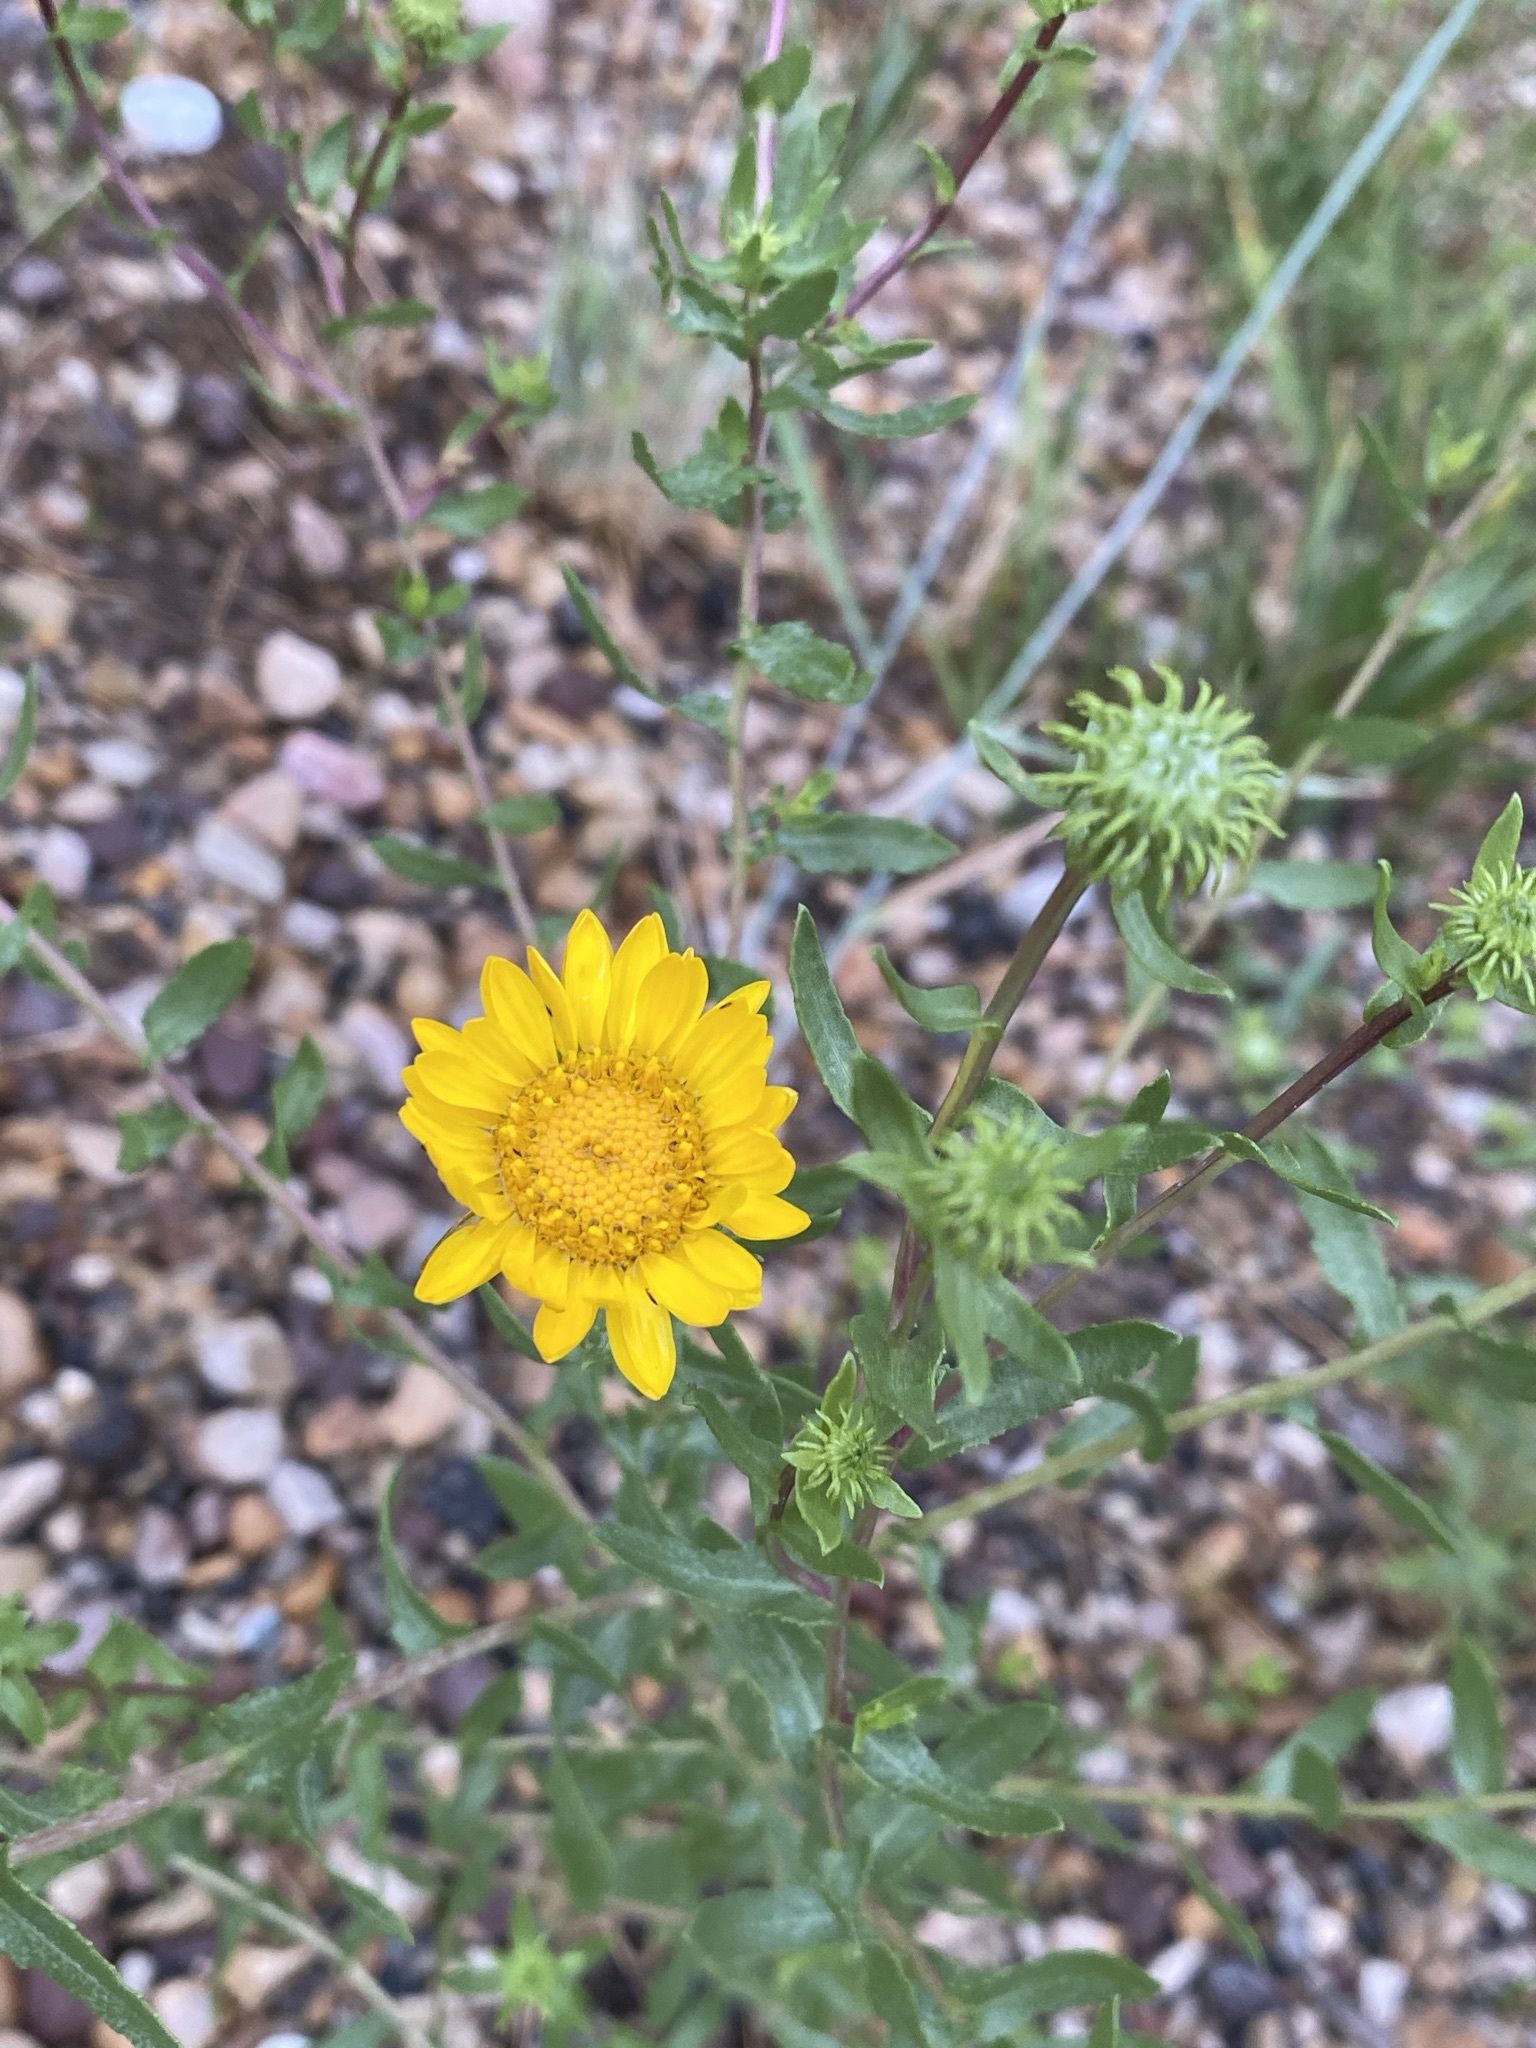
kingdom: Plantae
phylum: Tracheophyta
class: Magnoliopsida
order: Asterales
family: Asteraceae
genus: Grindelia
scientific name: Grindelia squarrosa
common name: Curly-cup gumweed
